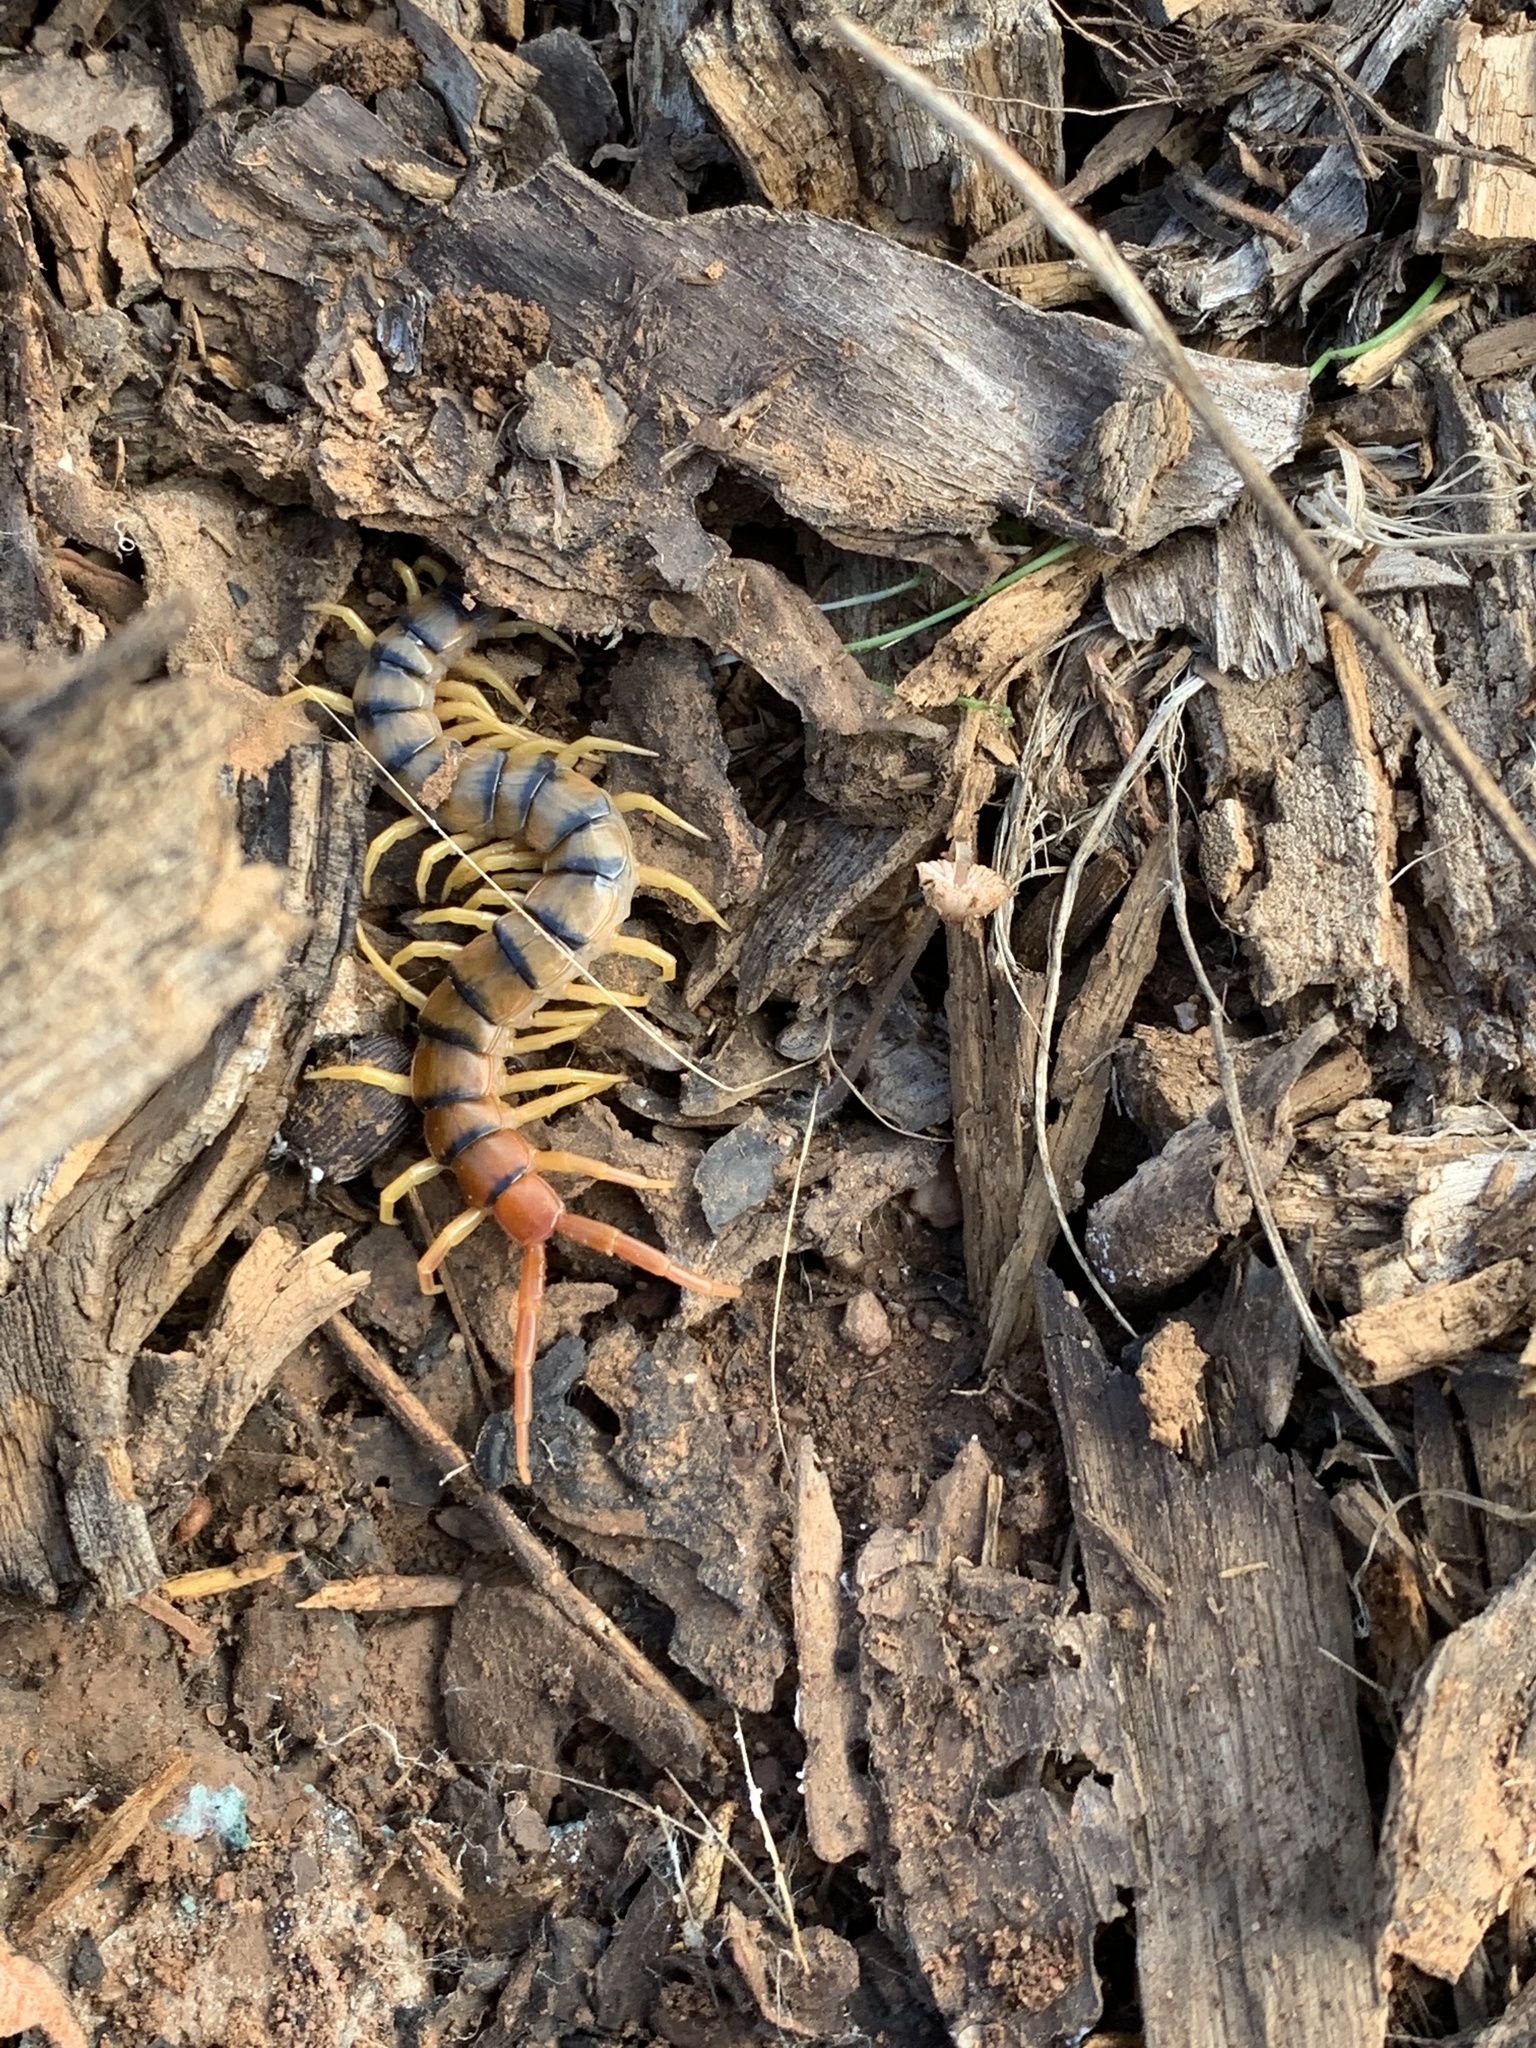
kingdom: Animalia
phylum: Arthropoda
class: Chilopoda
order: Scolopendromorpha
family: Scolopendridae
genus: Scolopendra
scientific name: Scolopendra polymorpha
